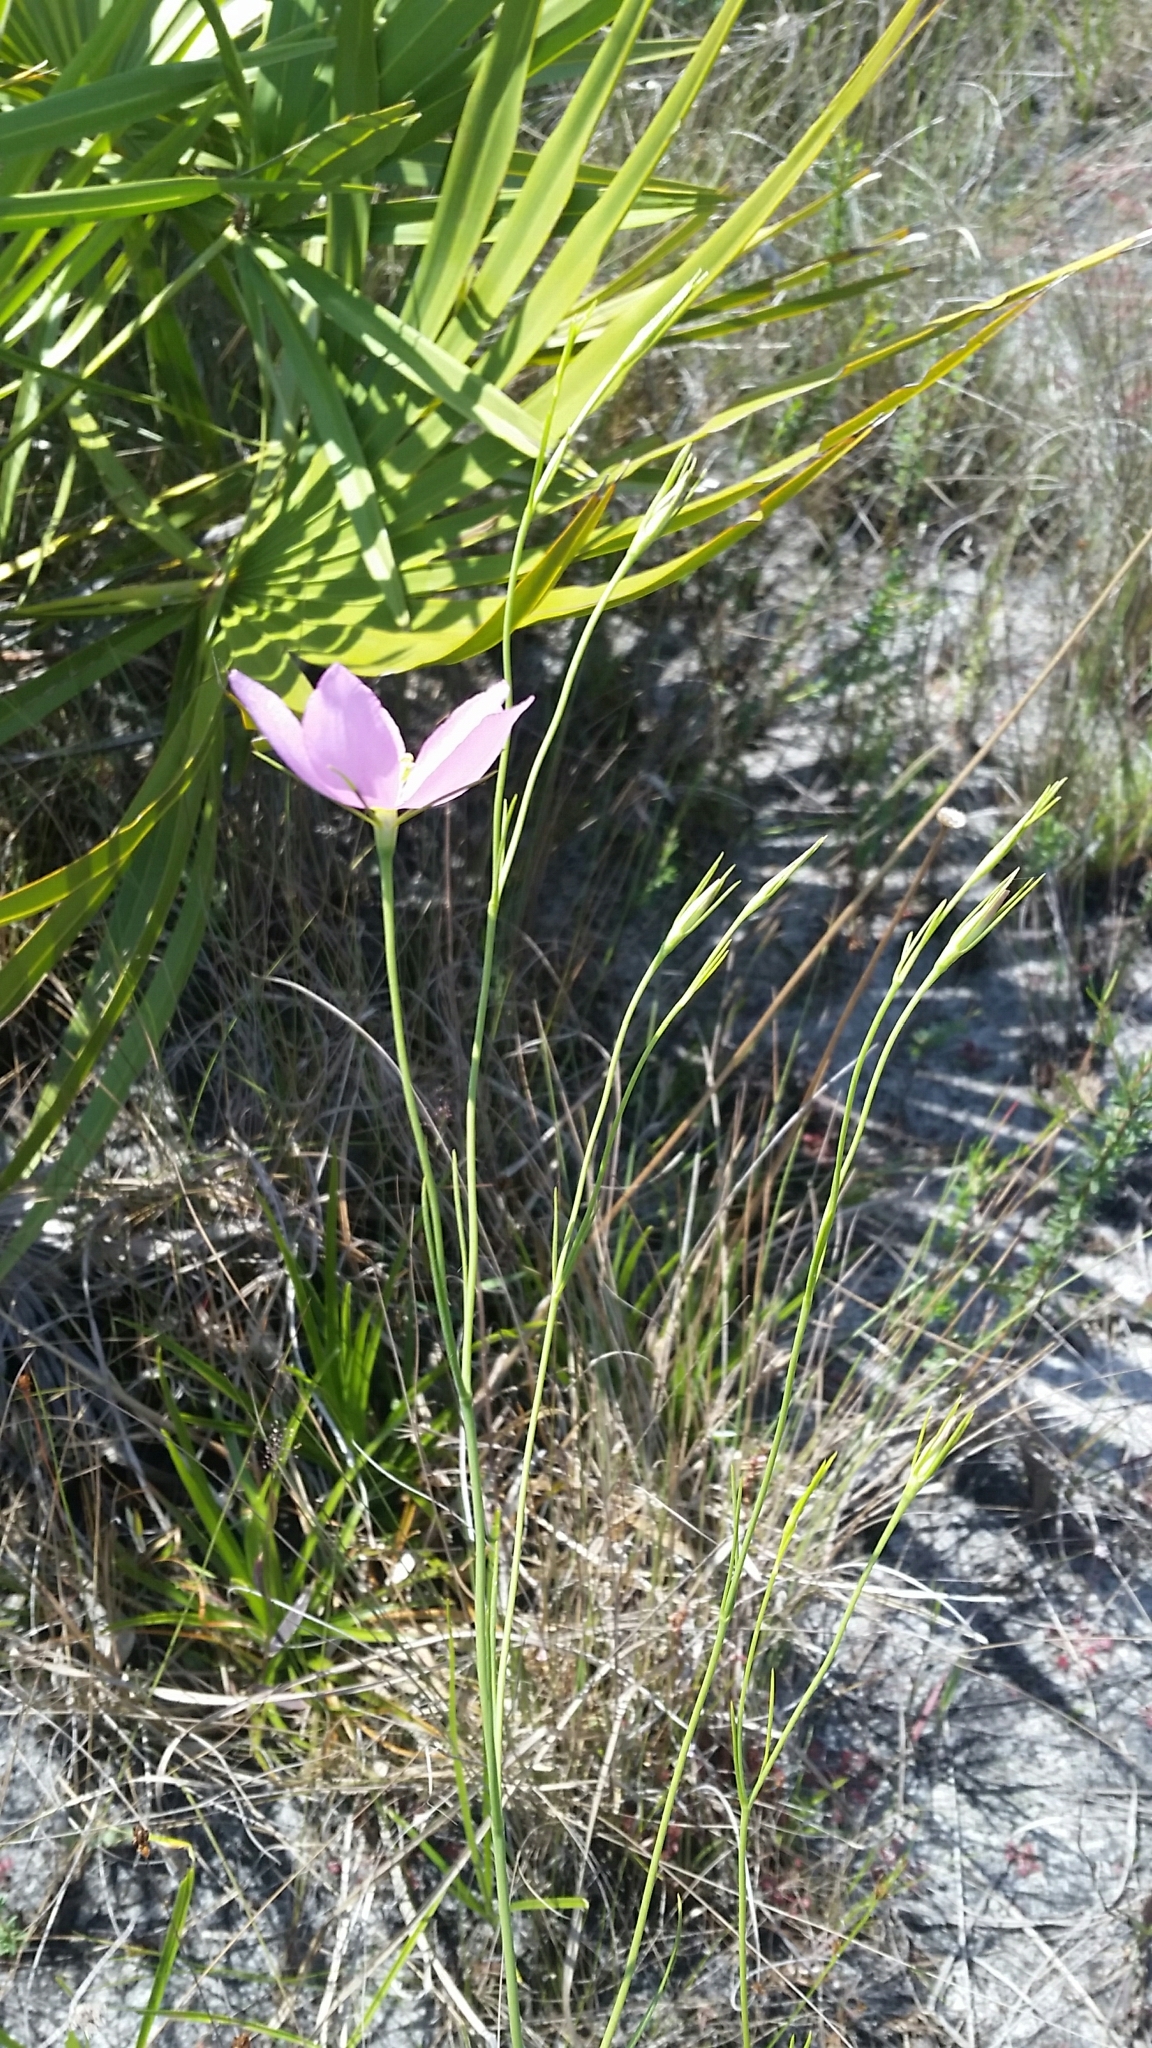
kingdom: Plantae
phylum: Tracheophyta
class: Magnoliopsida
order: Gentianales
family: Gentianaceae
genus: Sabatia
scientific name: Sabatia grandiflora
